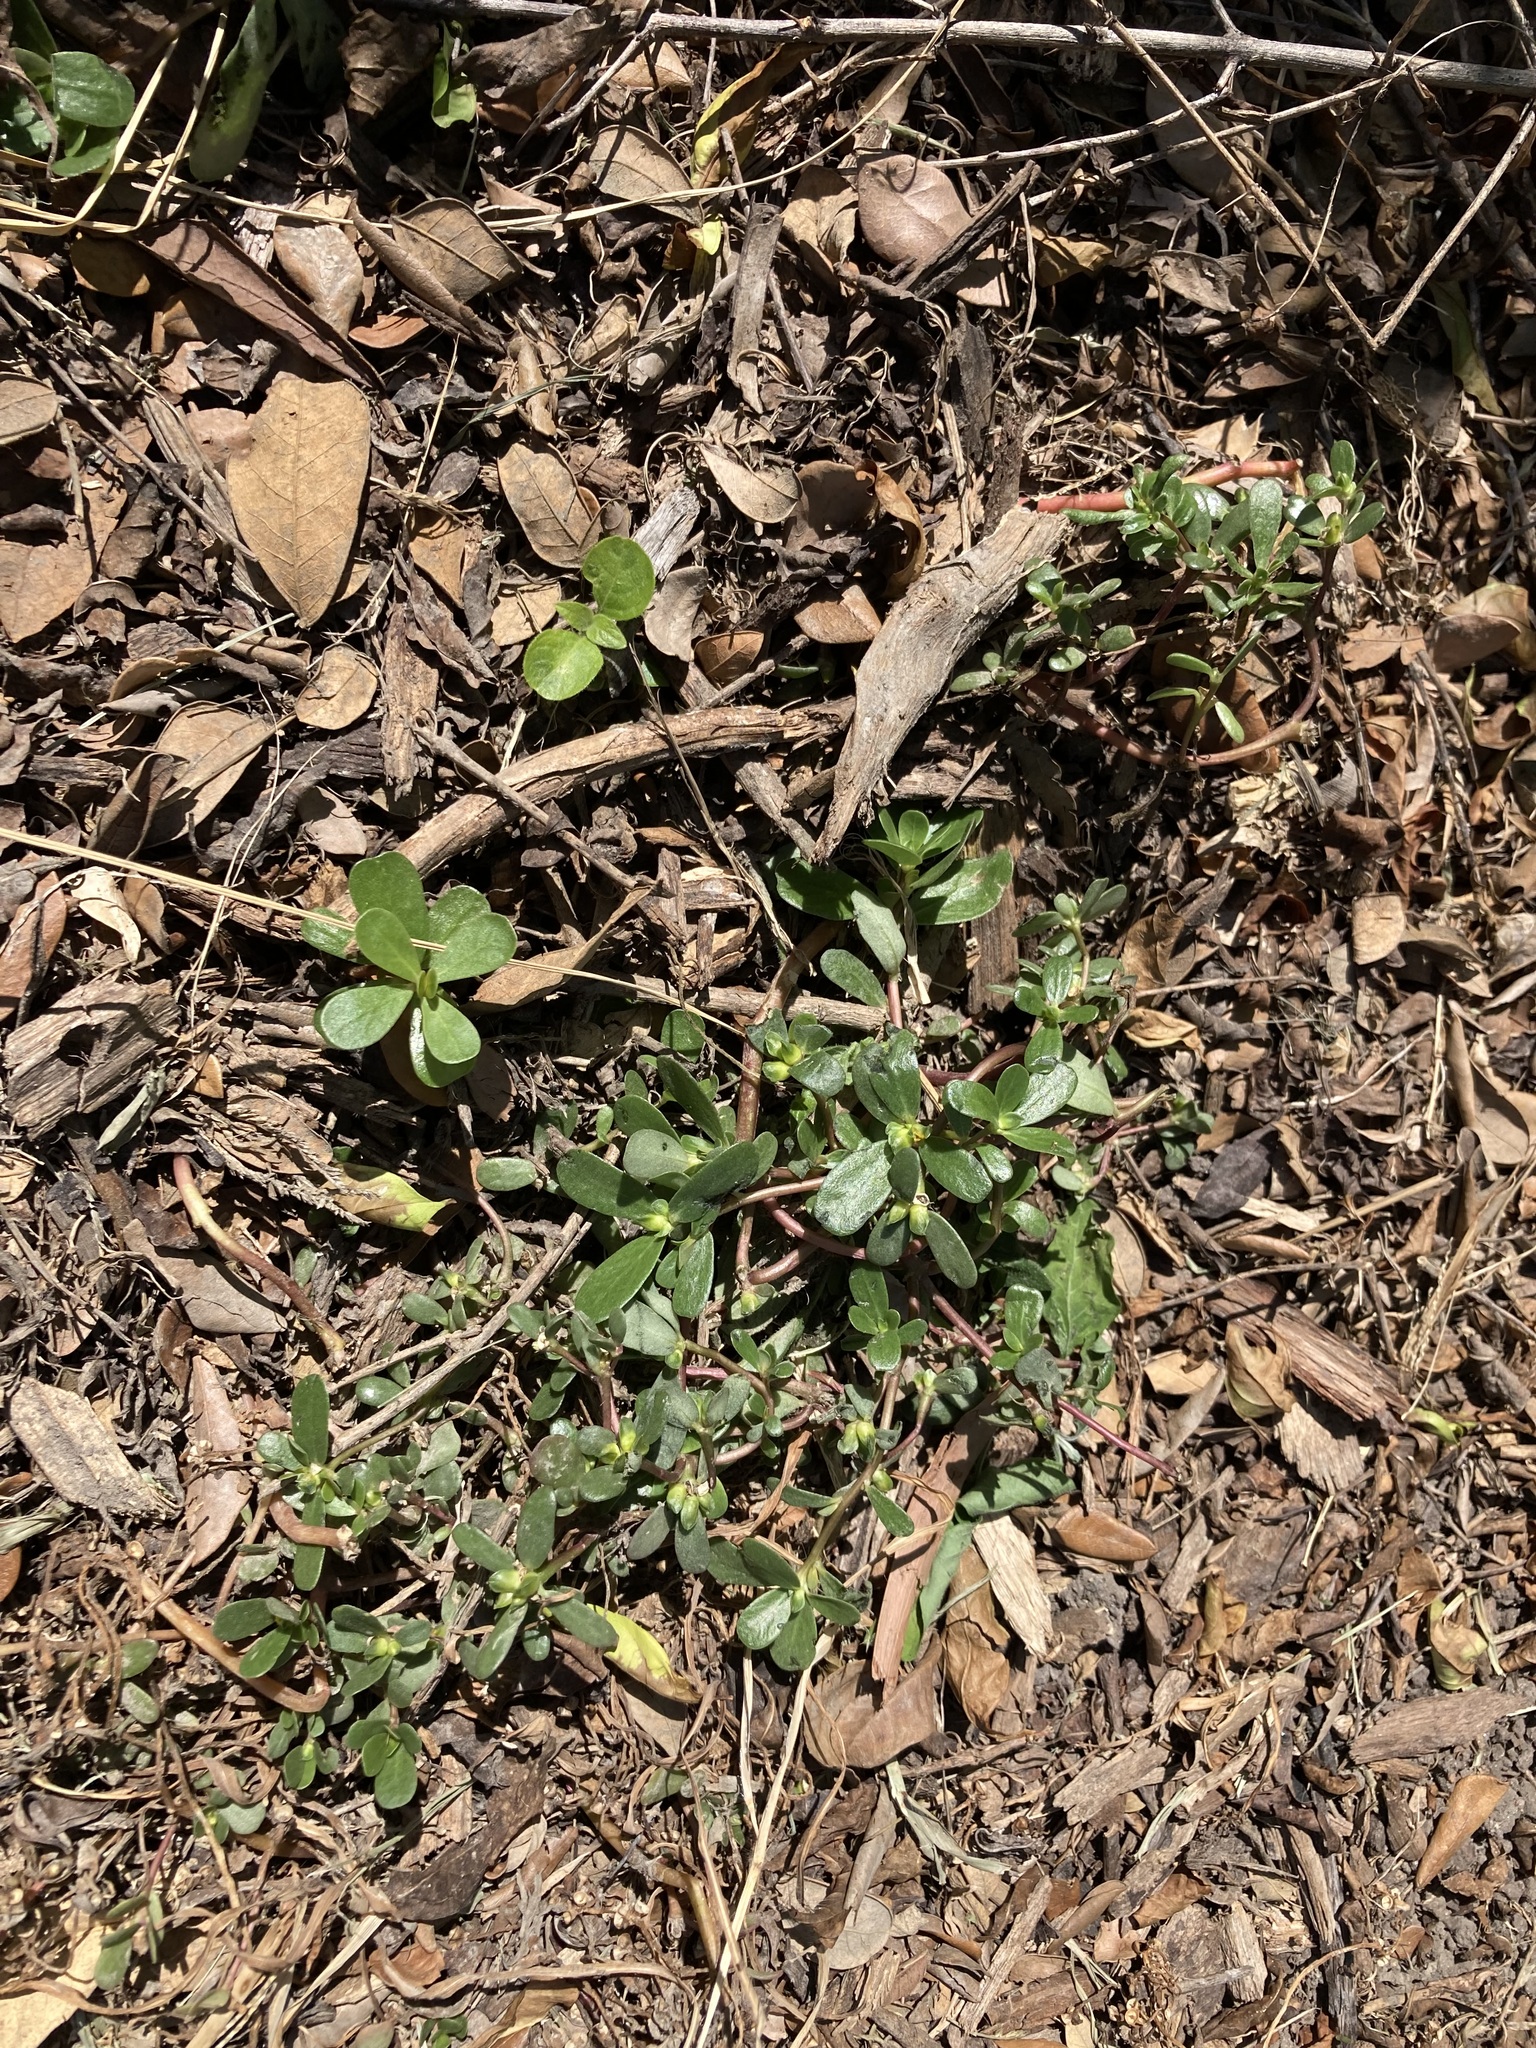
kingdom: Plantae
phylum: Tracheophyta
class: Magnoliopsida
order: Caryophyllales
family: Portulacaceae
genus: Portulaca
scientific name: Portulaca oleracea
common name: Common purslane
